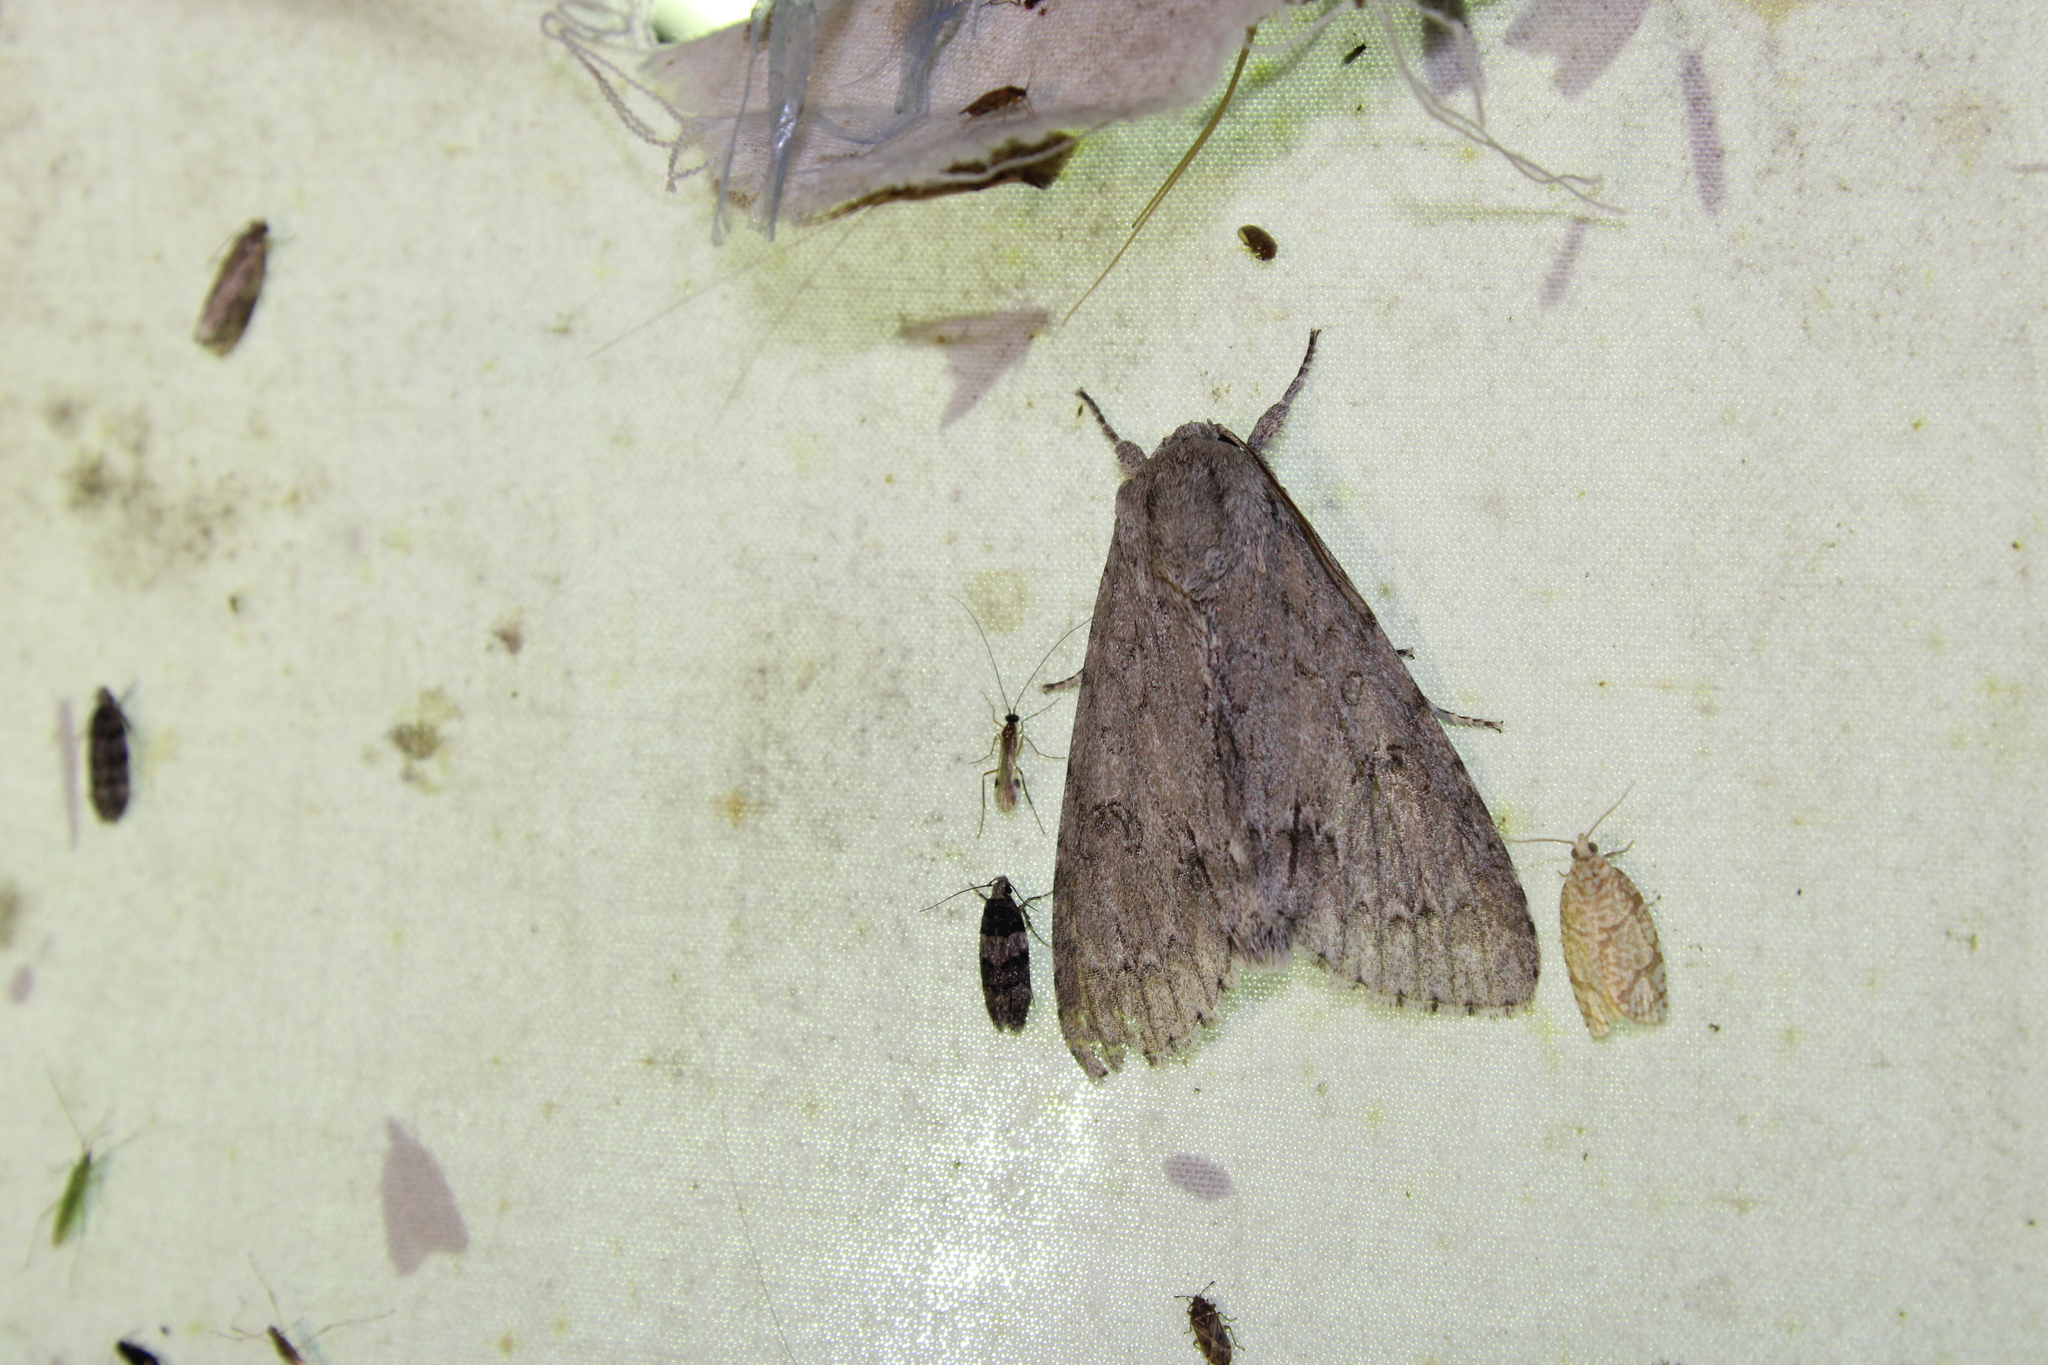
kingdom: Animalia
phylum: Arthropoda
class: Insecta
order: Lepidoptera
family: Noctuidae
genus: Acronicta
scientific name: Acronicta americana
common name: American dagger
